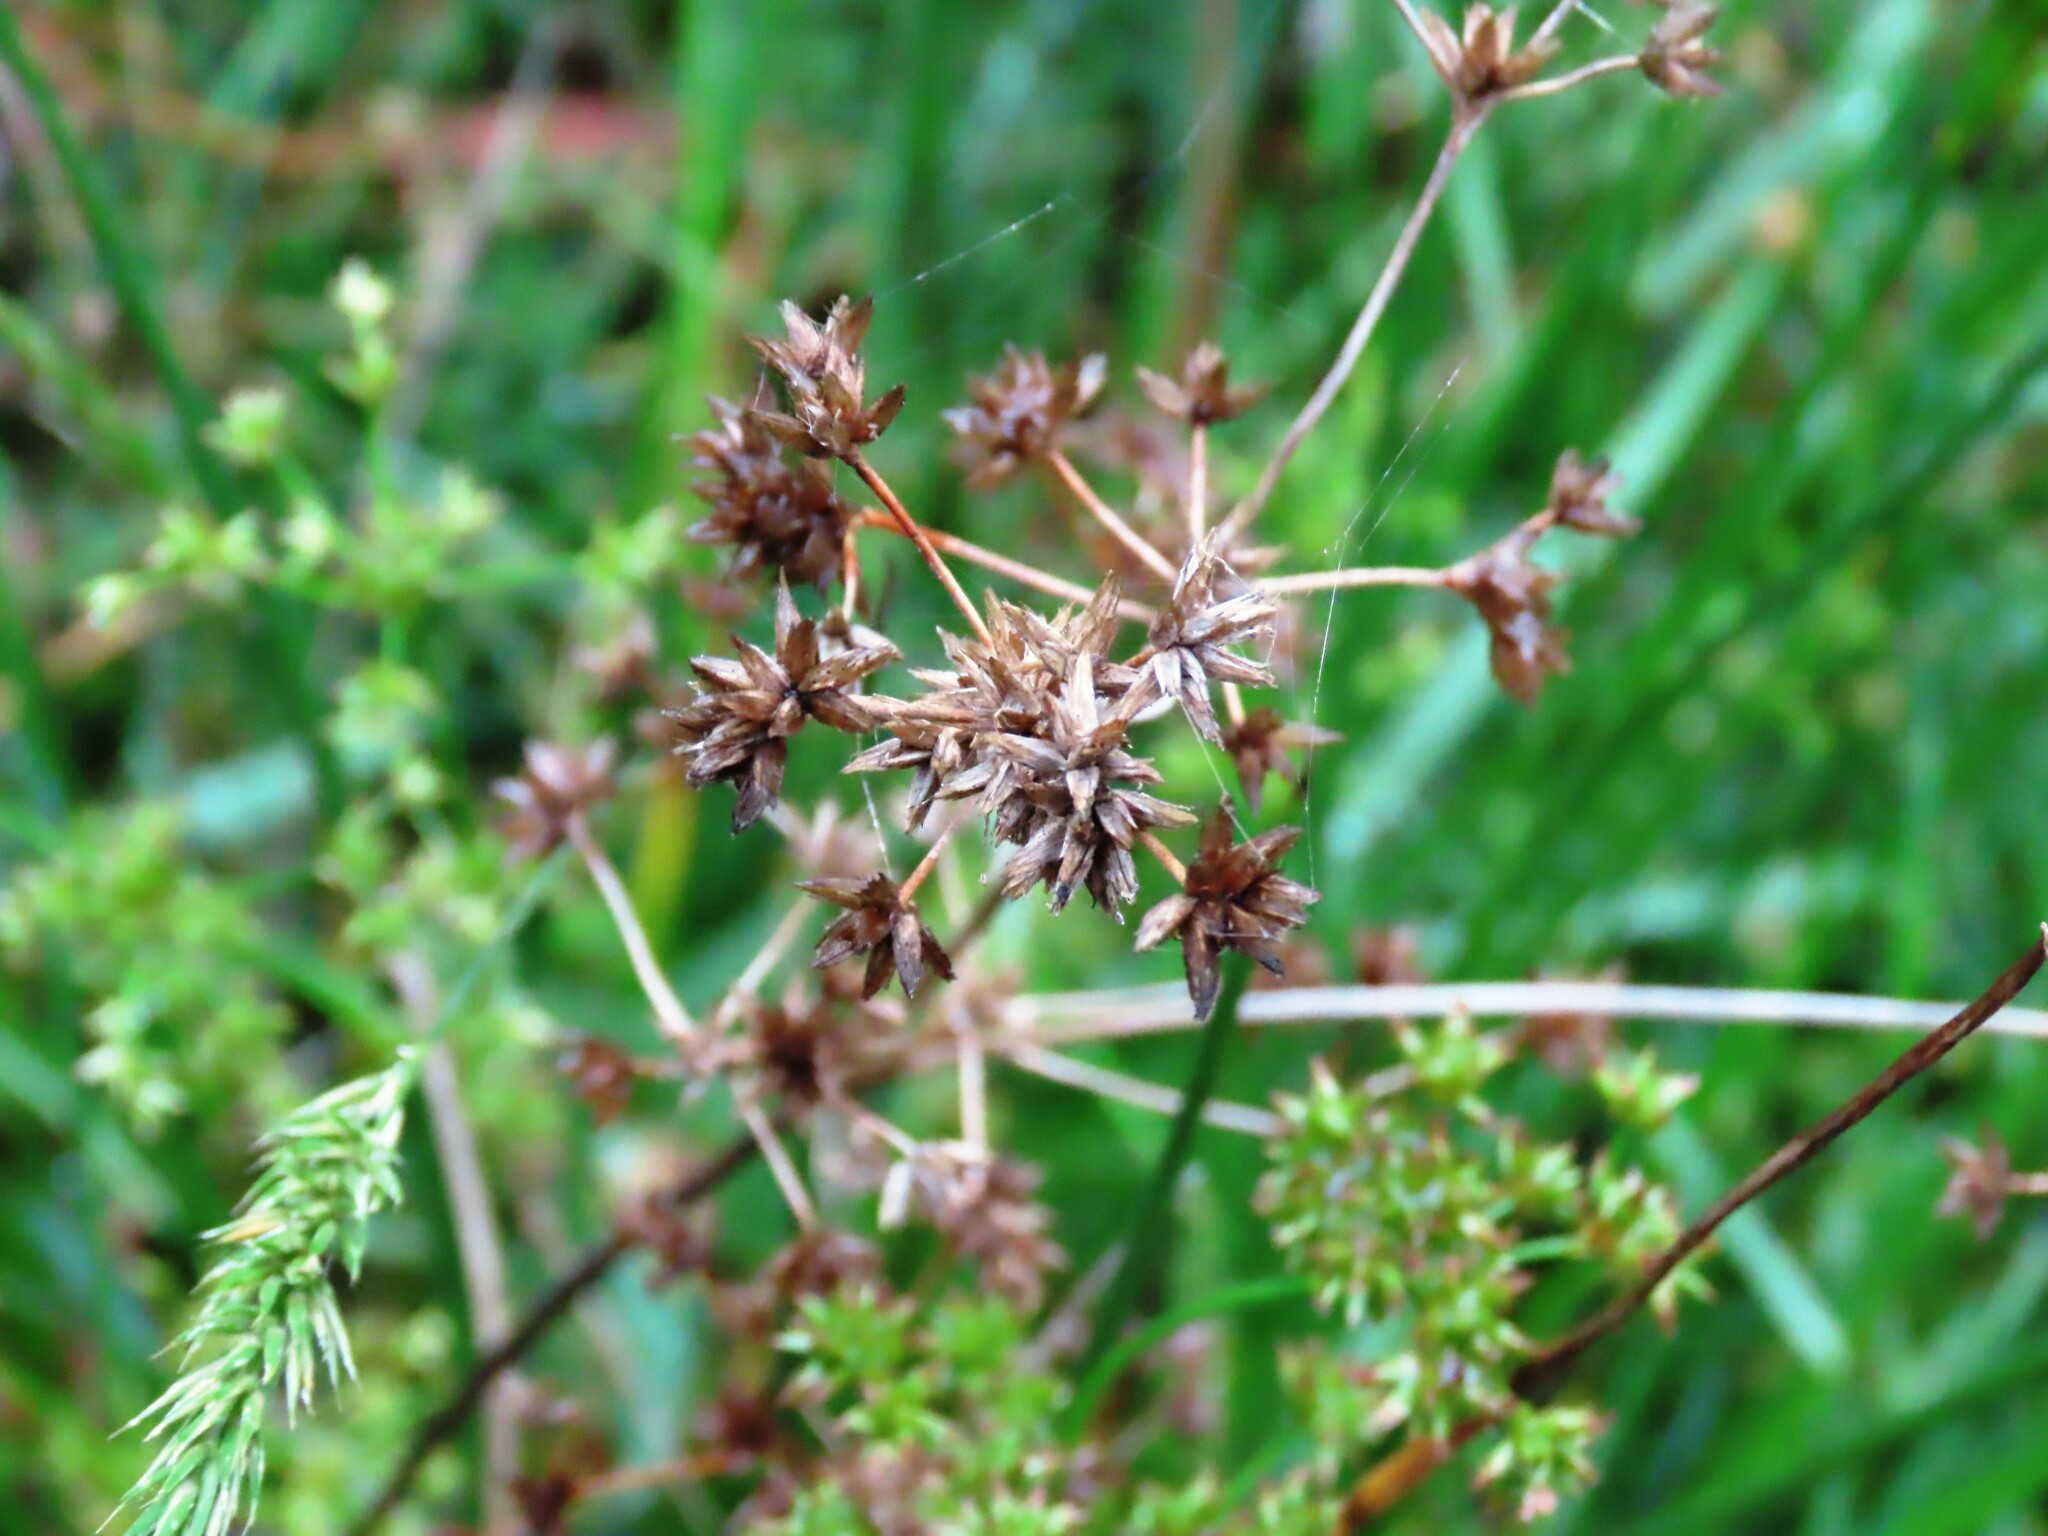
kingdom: Plantae
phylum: Tracheophyta
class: Liliopsida
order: Poales
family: Juncaceae
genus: Juncus
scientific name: Juncus prismatocarpus
